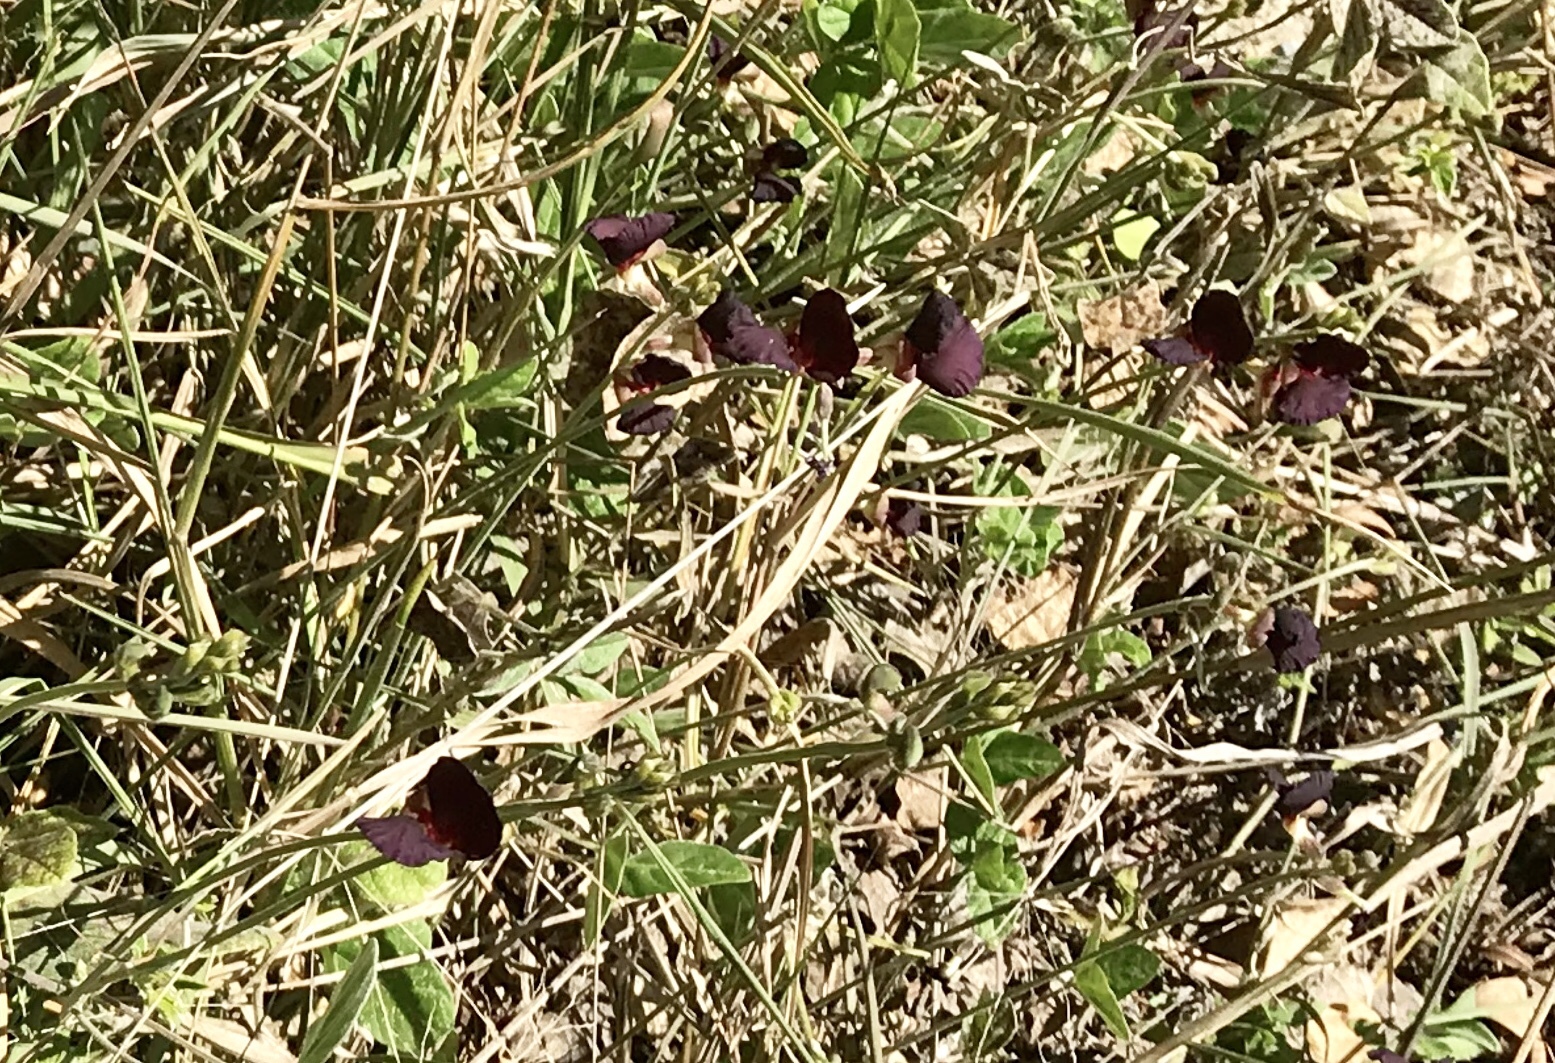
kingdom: Plantae
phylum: Tracheophyta
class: Magnoliopsida
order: Fabales
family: Fabaceae
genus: Macroptilium
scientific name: Macroptilium atropurpureum
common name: Purple bushbean
